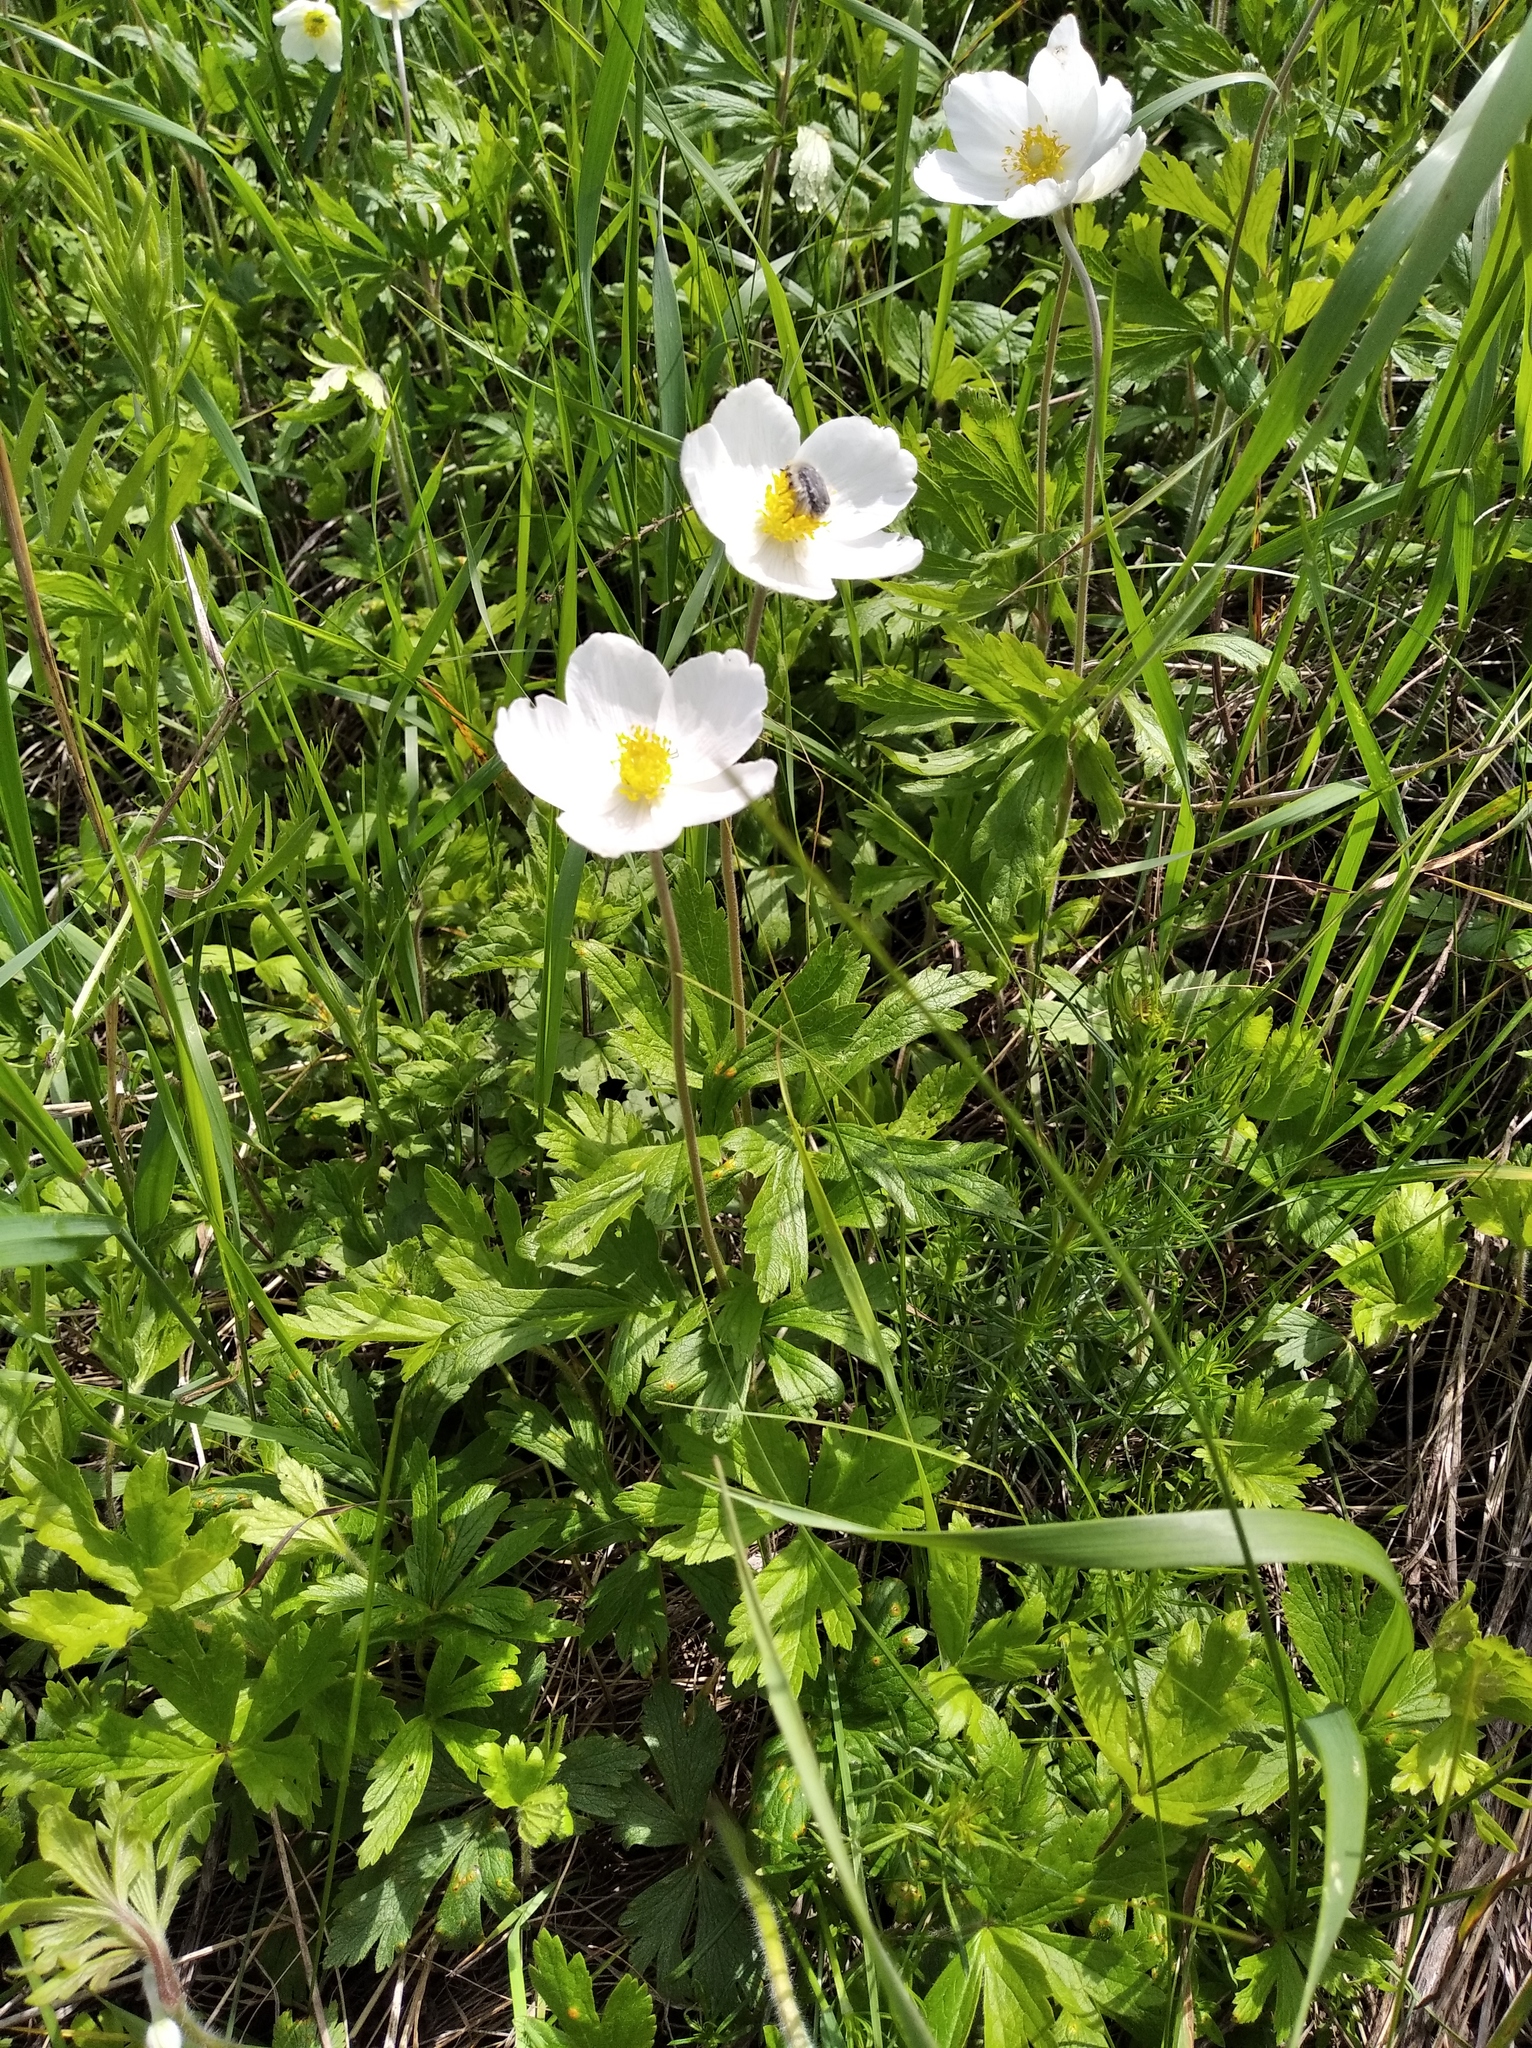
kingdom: Plantae
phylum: Tracheophyta
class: Magnoliopsida
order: Ranunculales
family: Ranunculaceae
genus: Anemone
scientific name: Anemone sylvestris
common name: Snowdrop anemone
